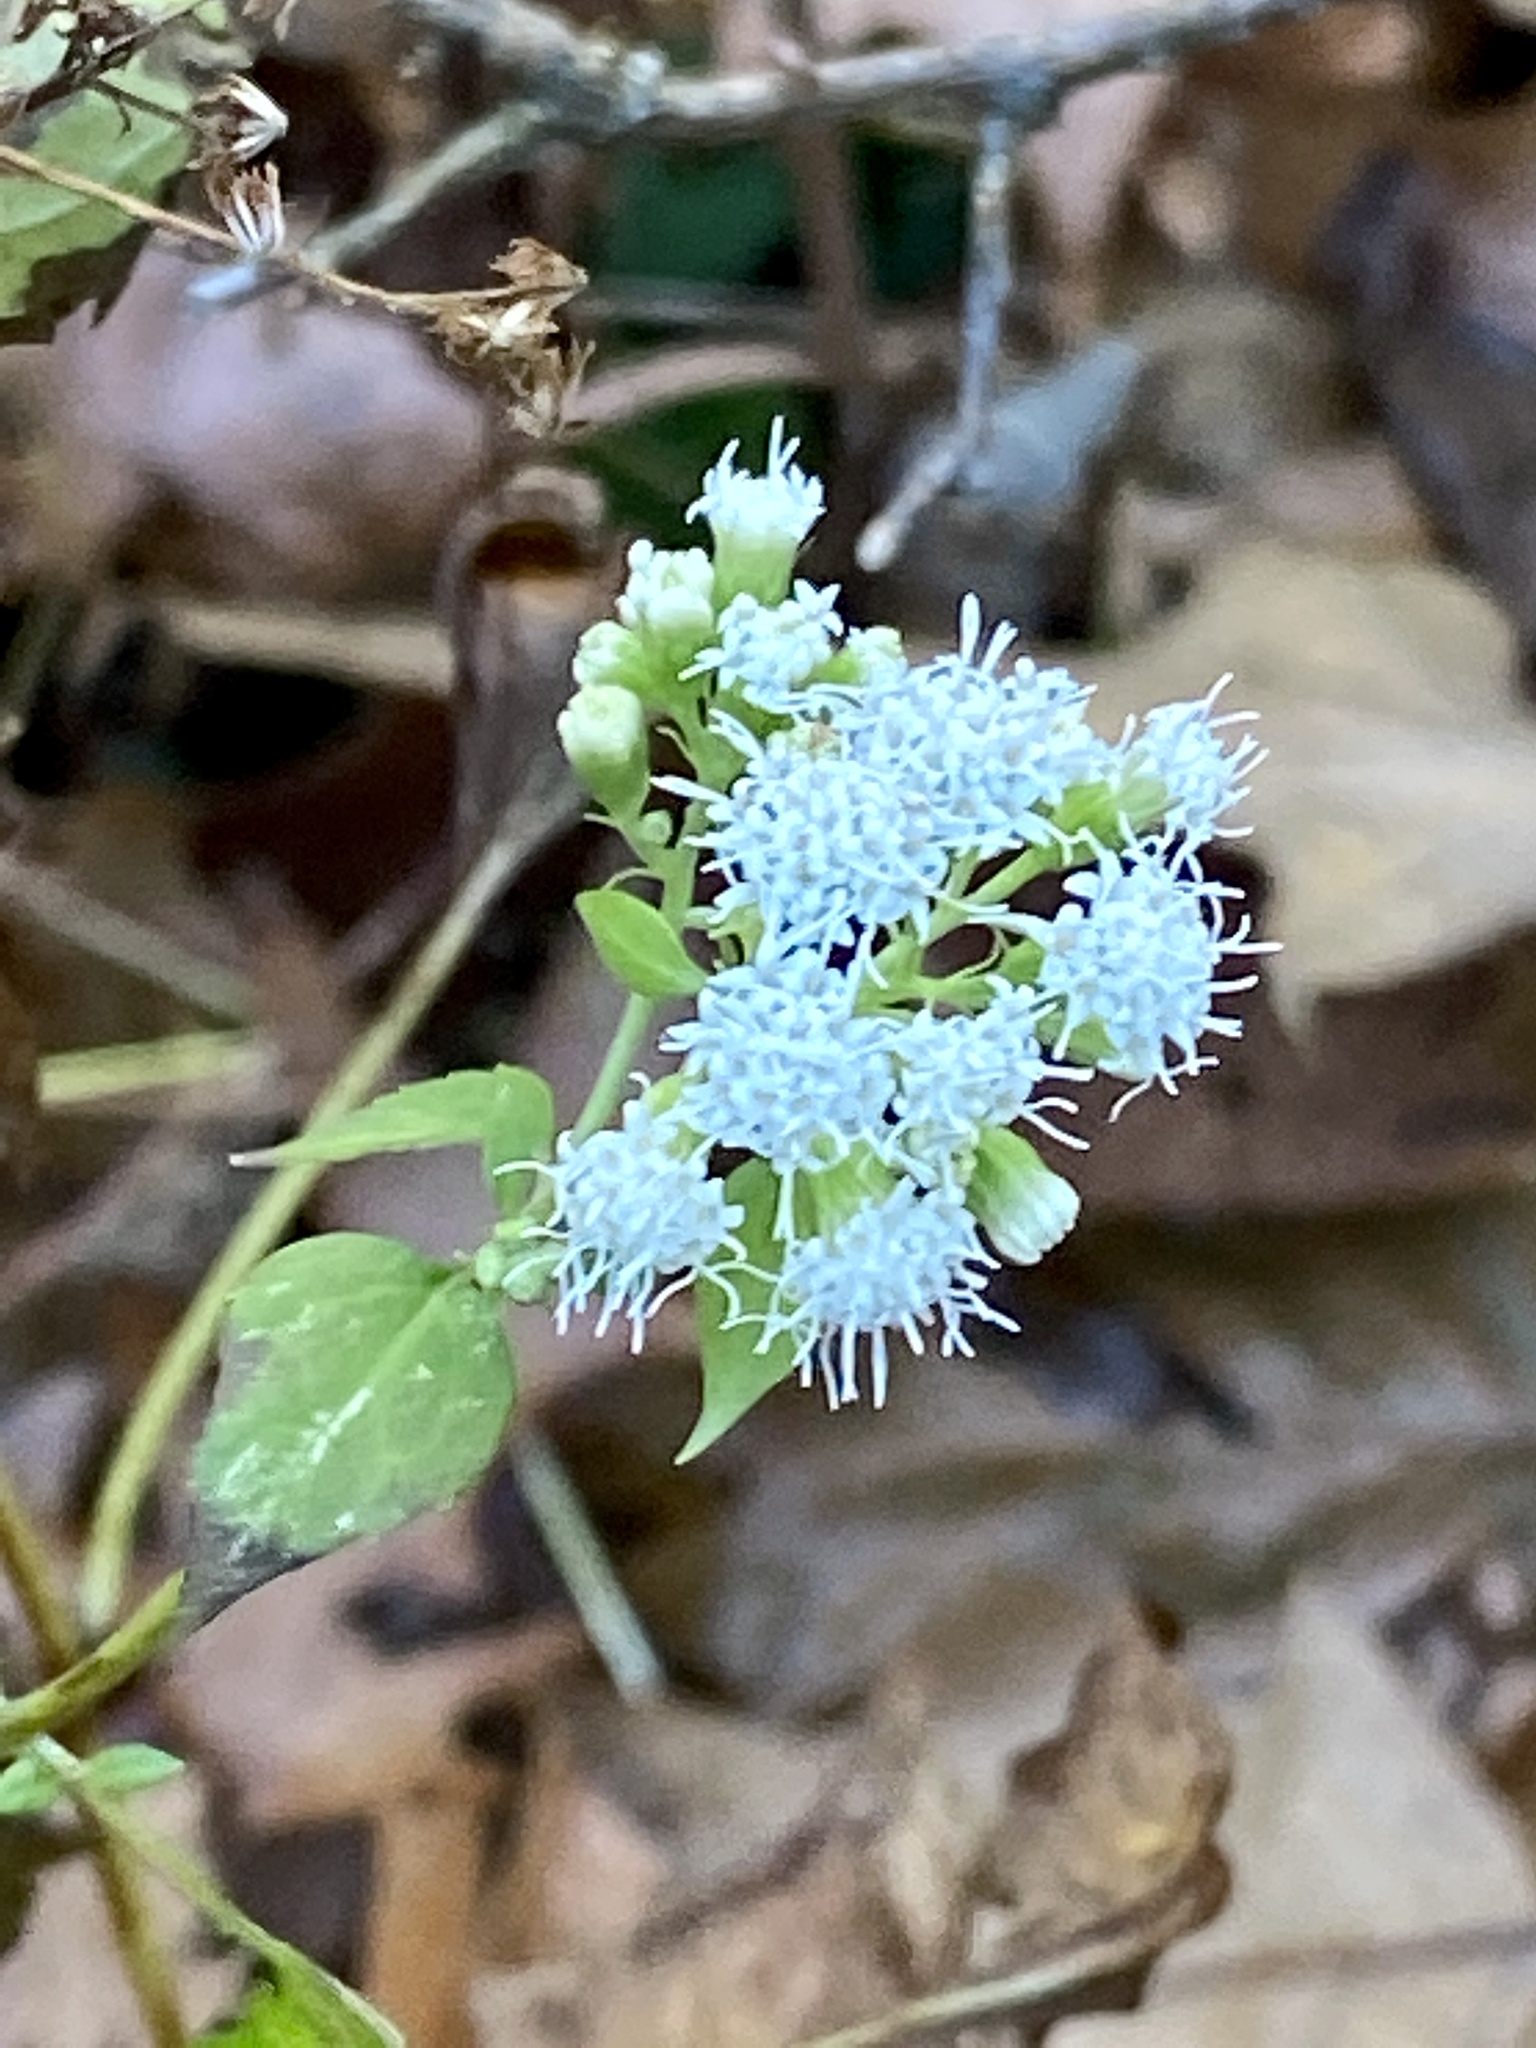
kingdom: Plantae
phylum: Tracheophyta
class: Magnoliopsida
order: Asterales
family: Asteraceae
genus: Ageratina
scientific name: Ageratina altissima
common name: White snakeroot
